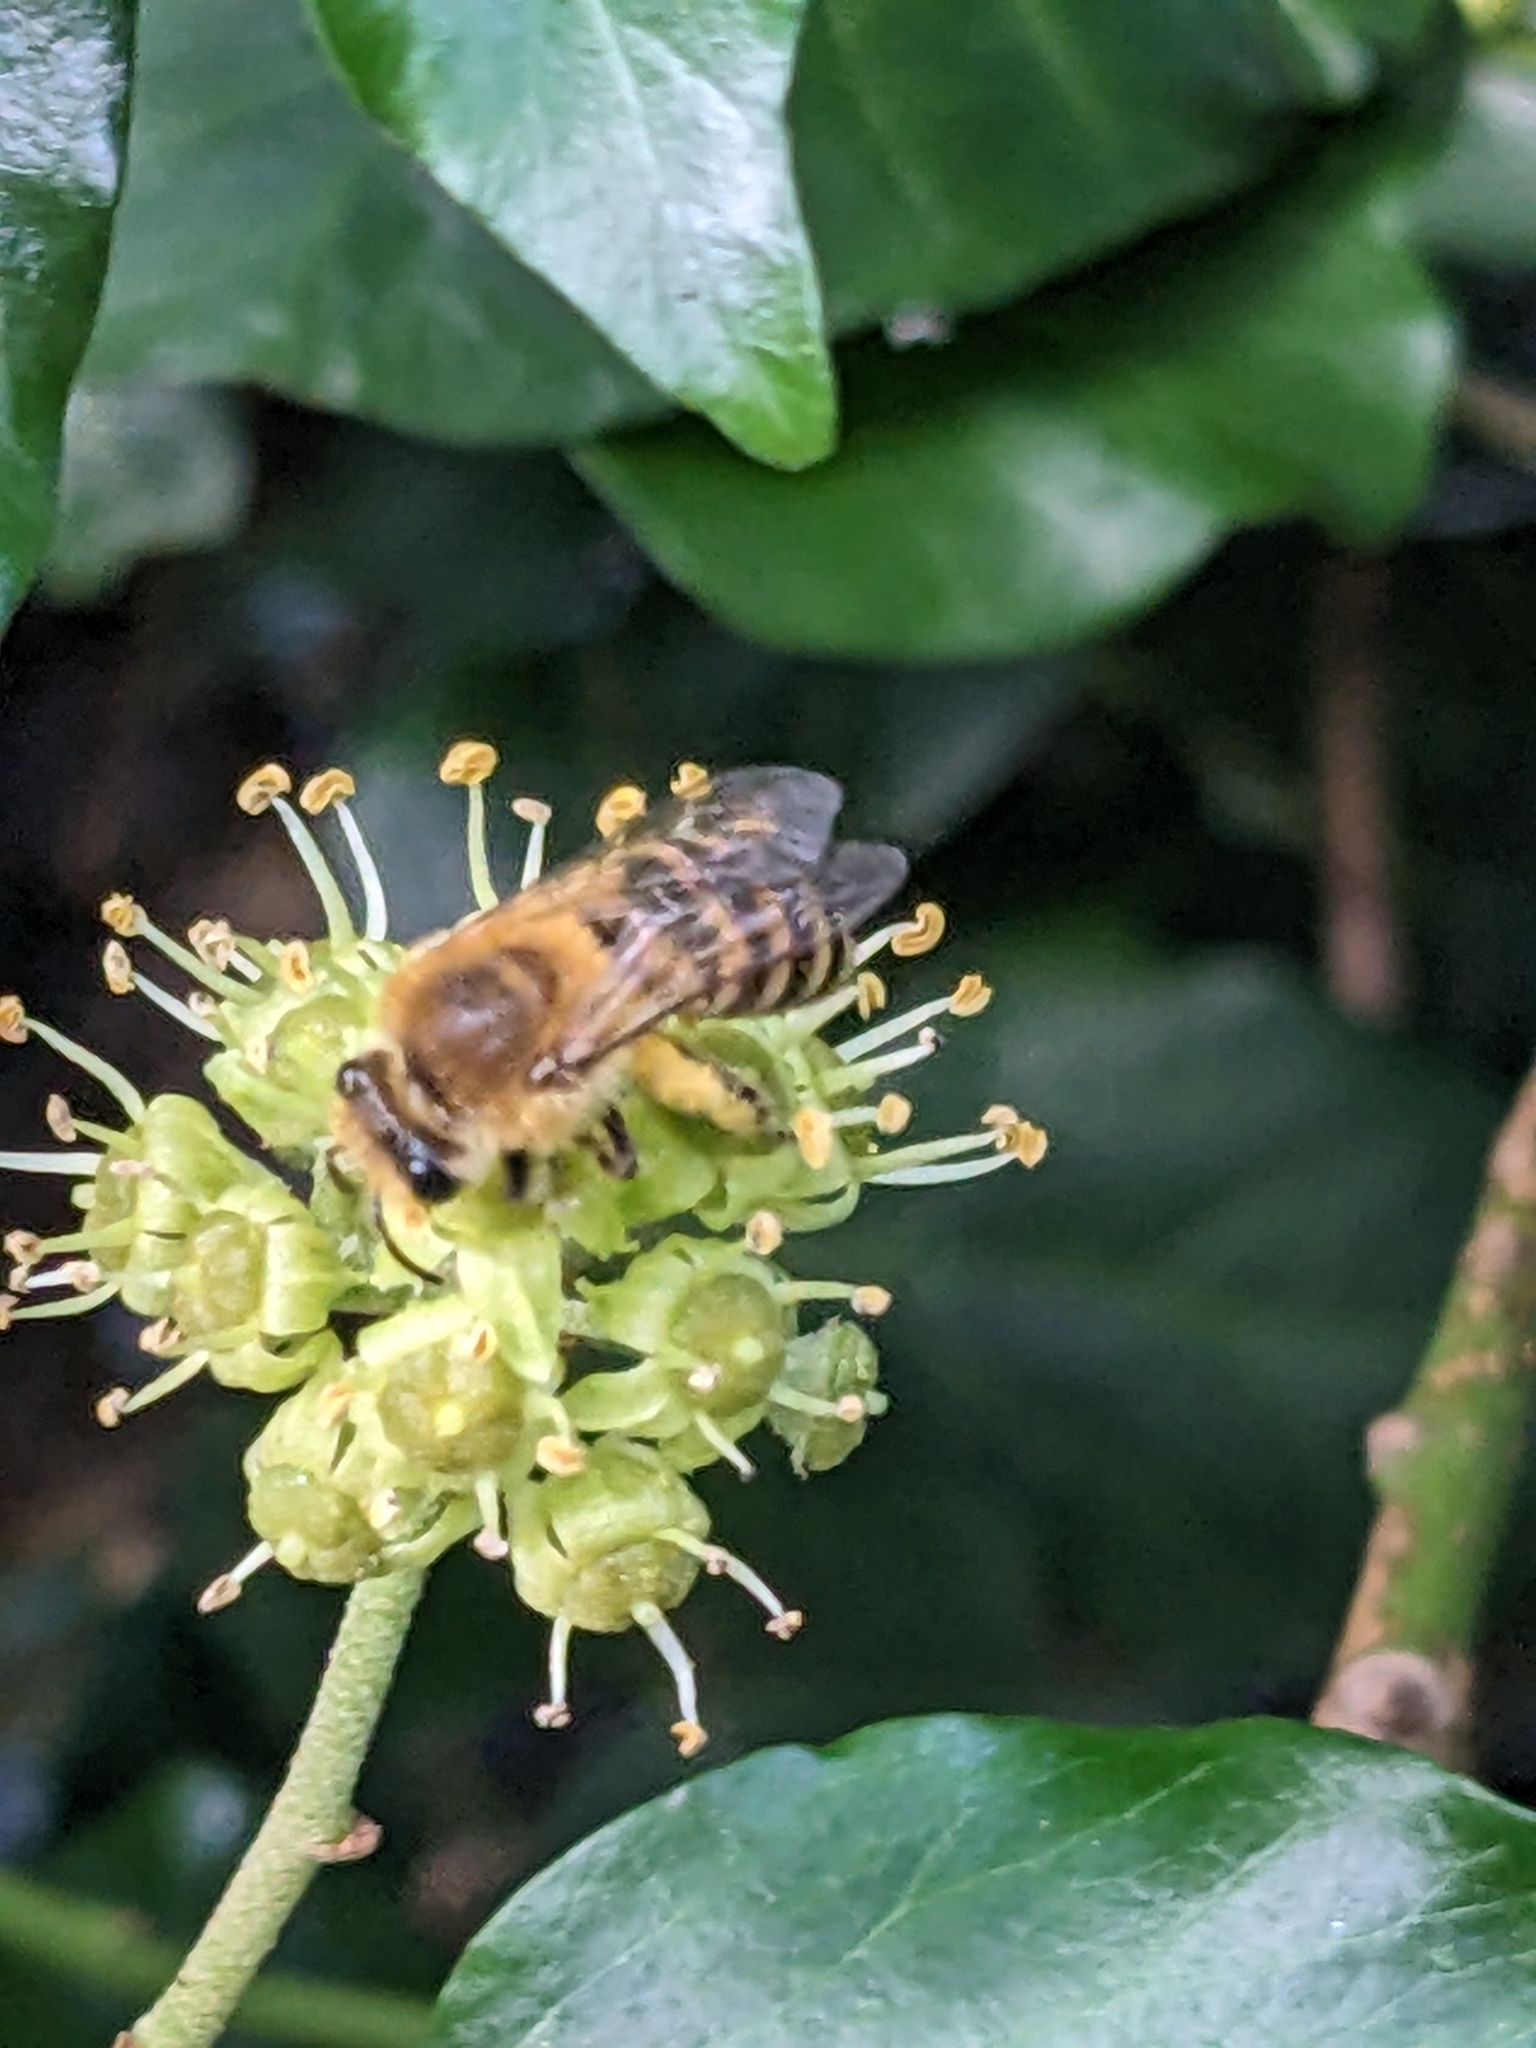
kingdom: Animalia
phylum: Arthropoda
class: Insecta
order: Hymenoptera
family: Colletidae
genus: Colletes
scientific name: Colletes hederae
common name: Ivy bee
